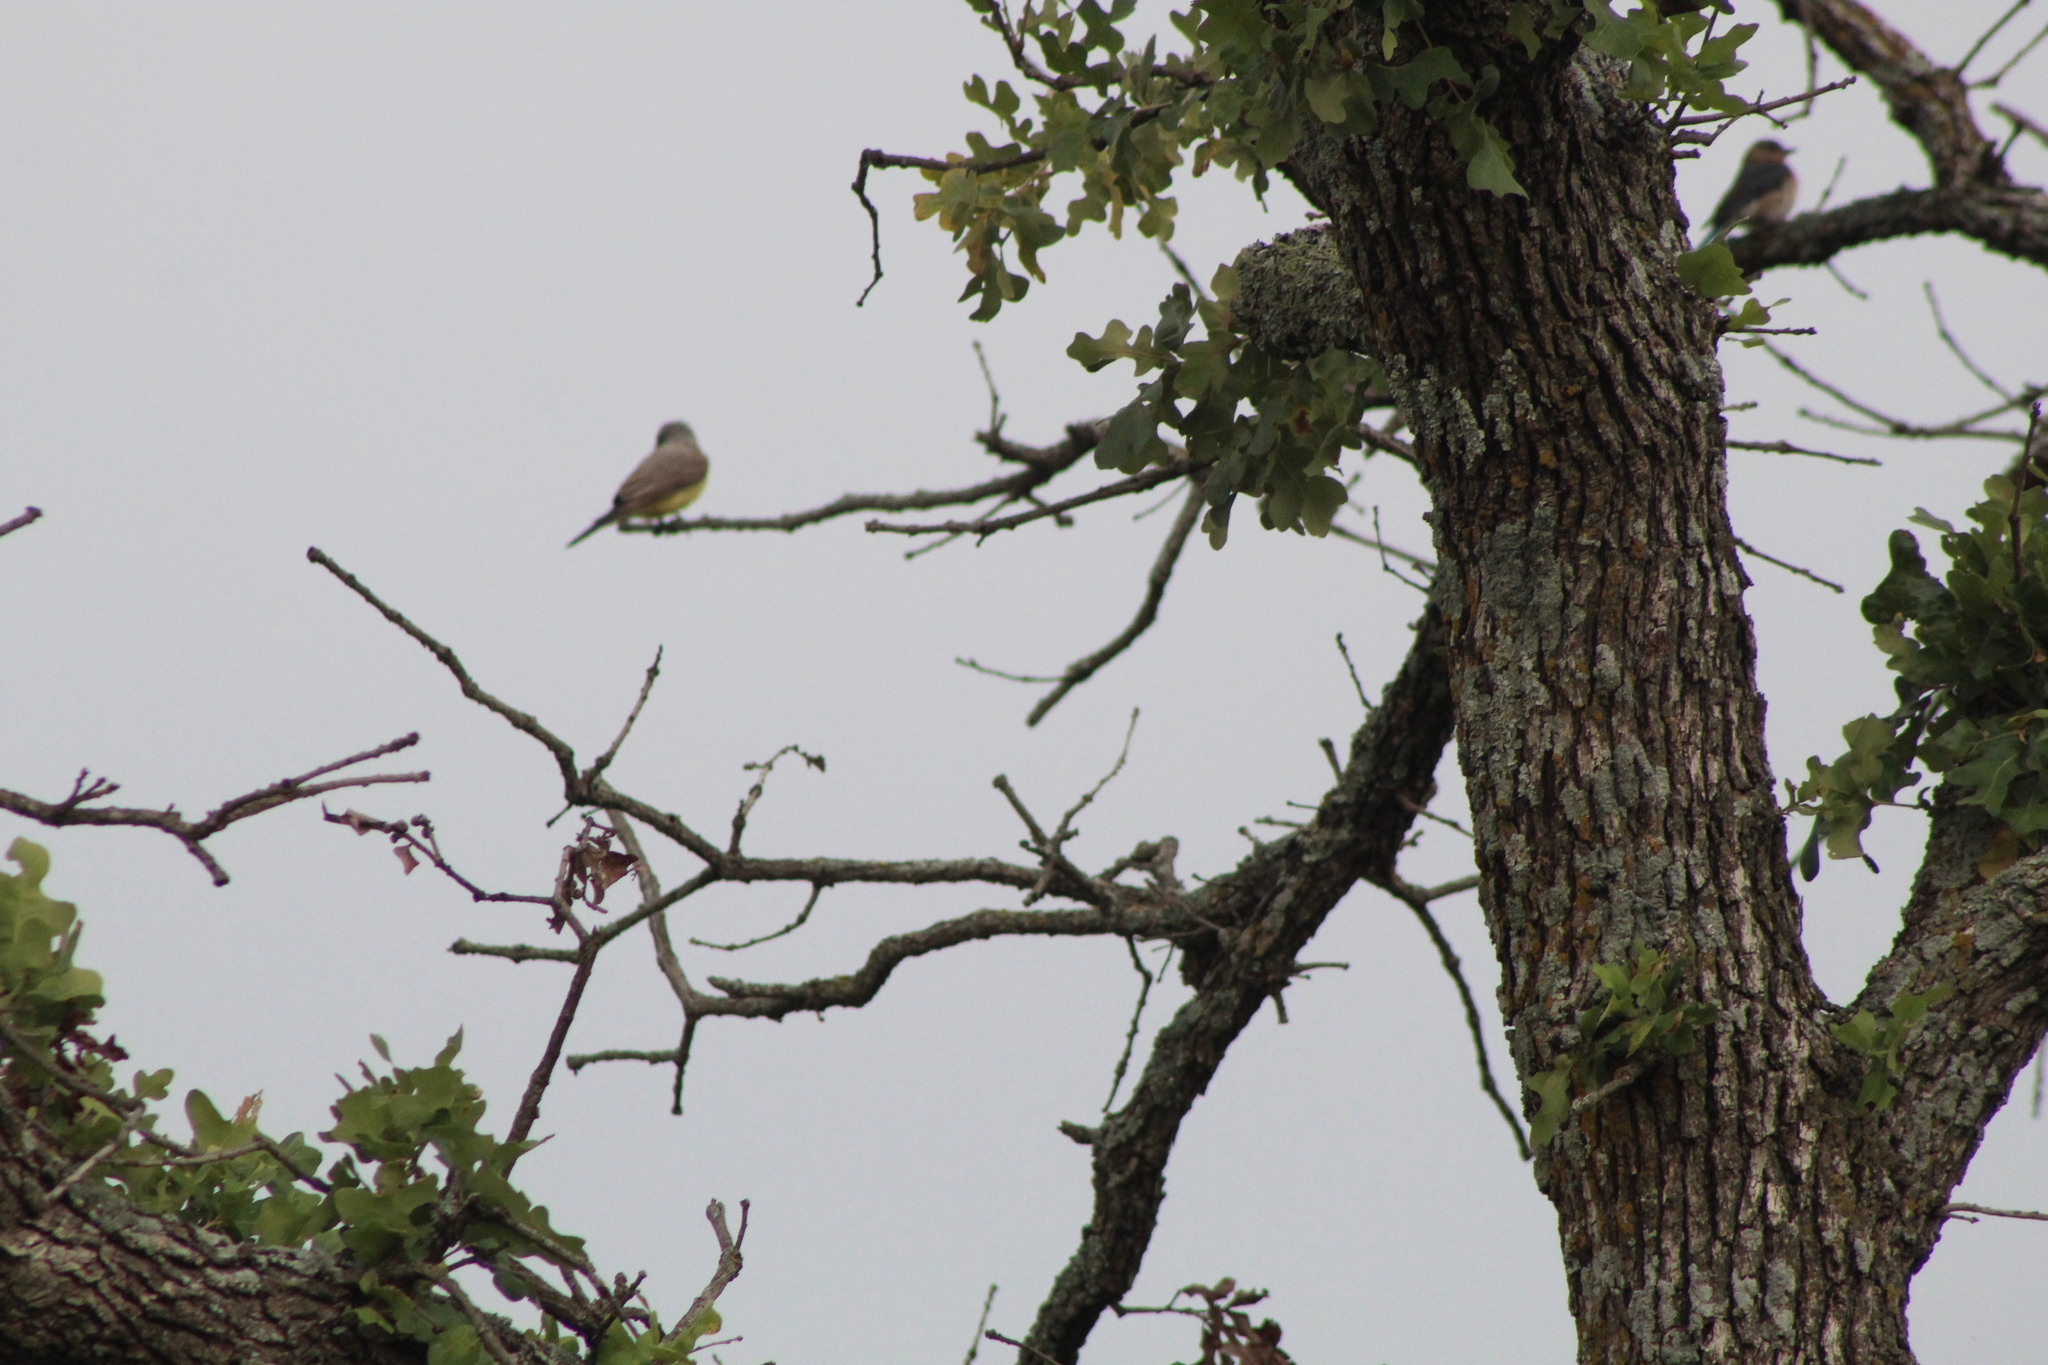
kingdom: Animalia
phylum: Chordata
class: Aves
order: Passeriformes
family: Tyrannidae
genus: Tyrannus
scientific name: Tyrannus verticalis
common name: Western kingbird
